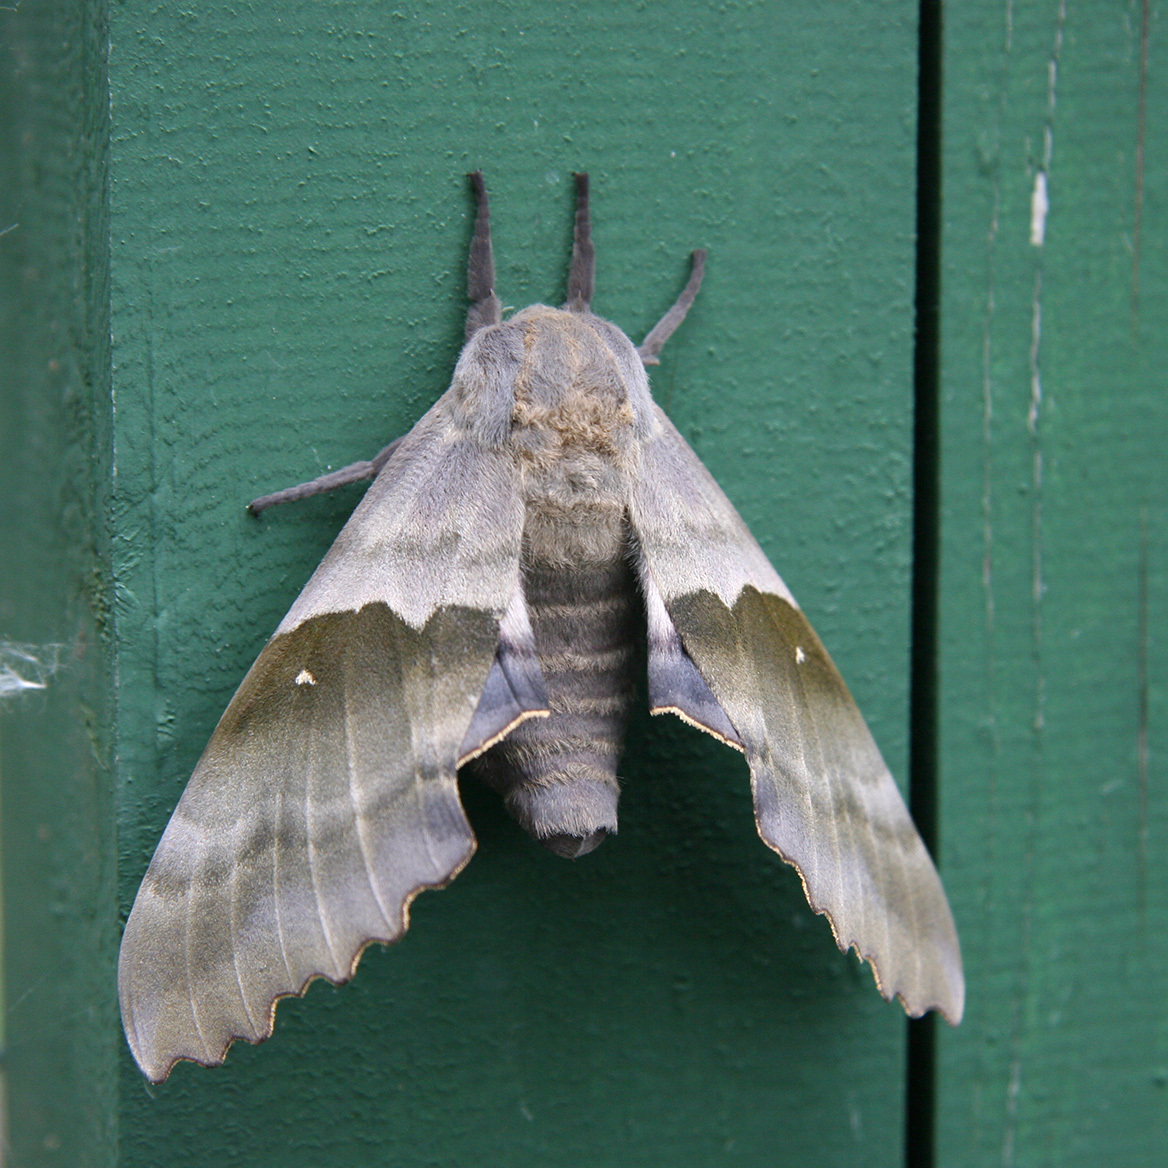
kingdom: Animalia
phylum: Arthropoda
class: Insecta
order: Lepidoptera
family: Sphingidae
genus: Pachysphinx
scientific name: Pachysphinx modesta
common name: Big poplar sphinx
